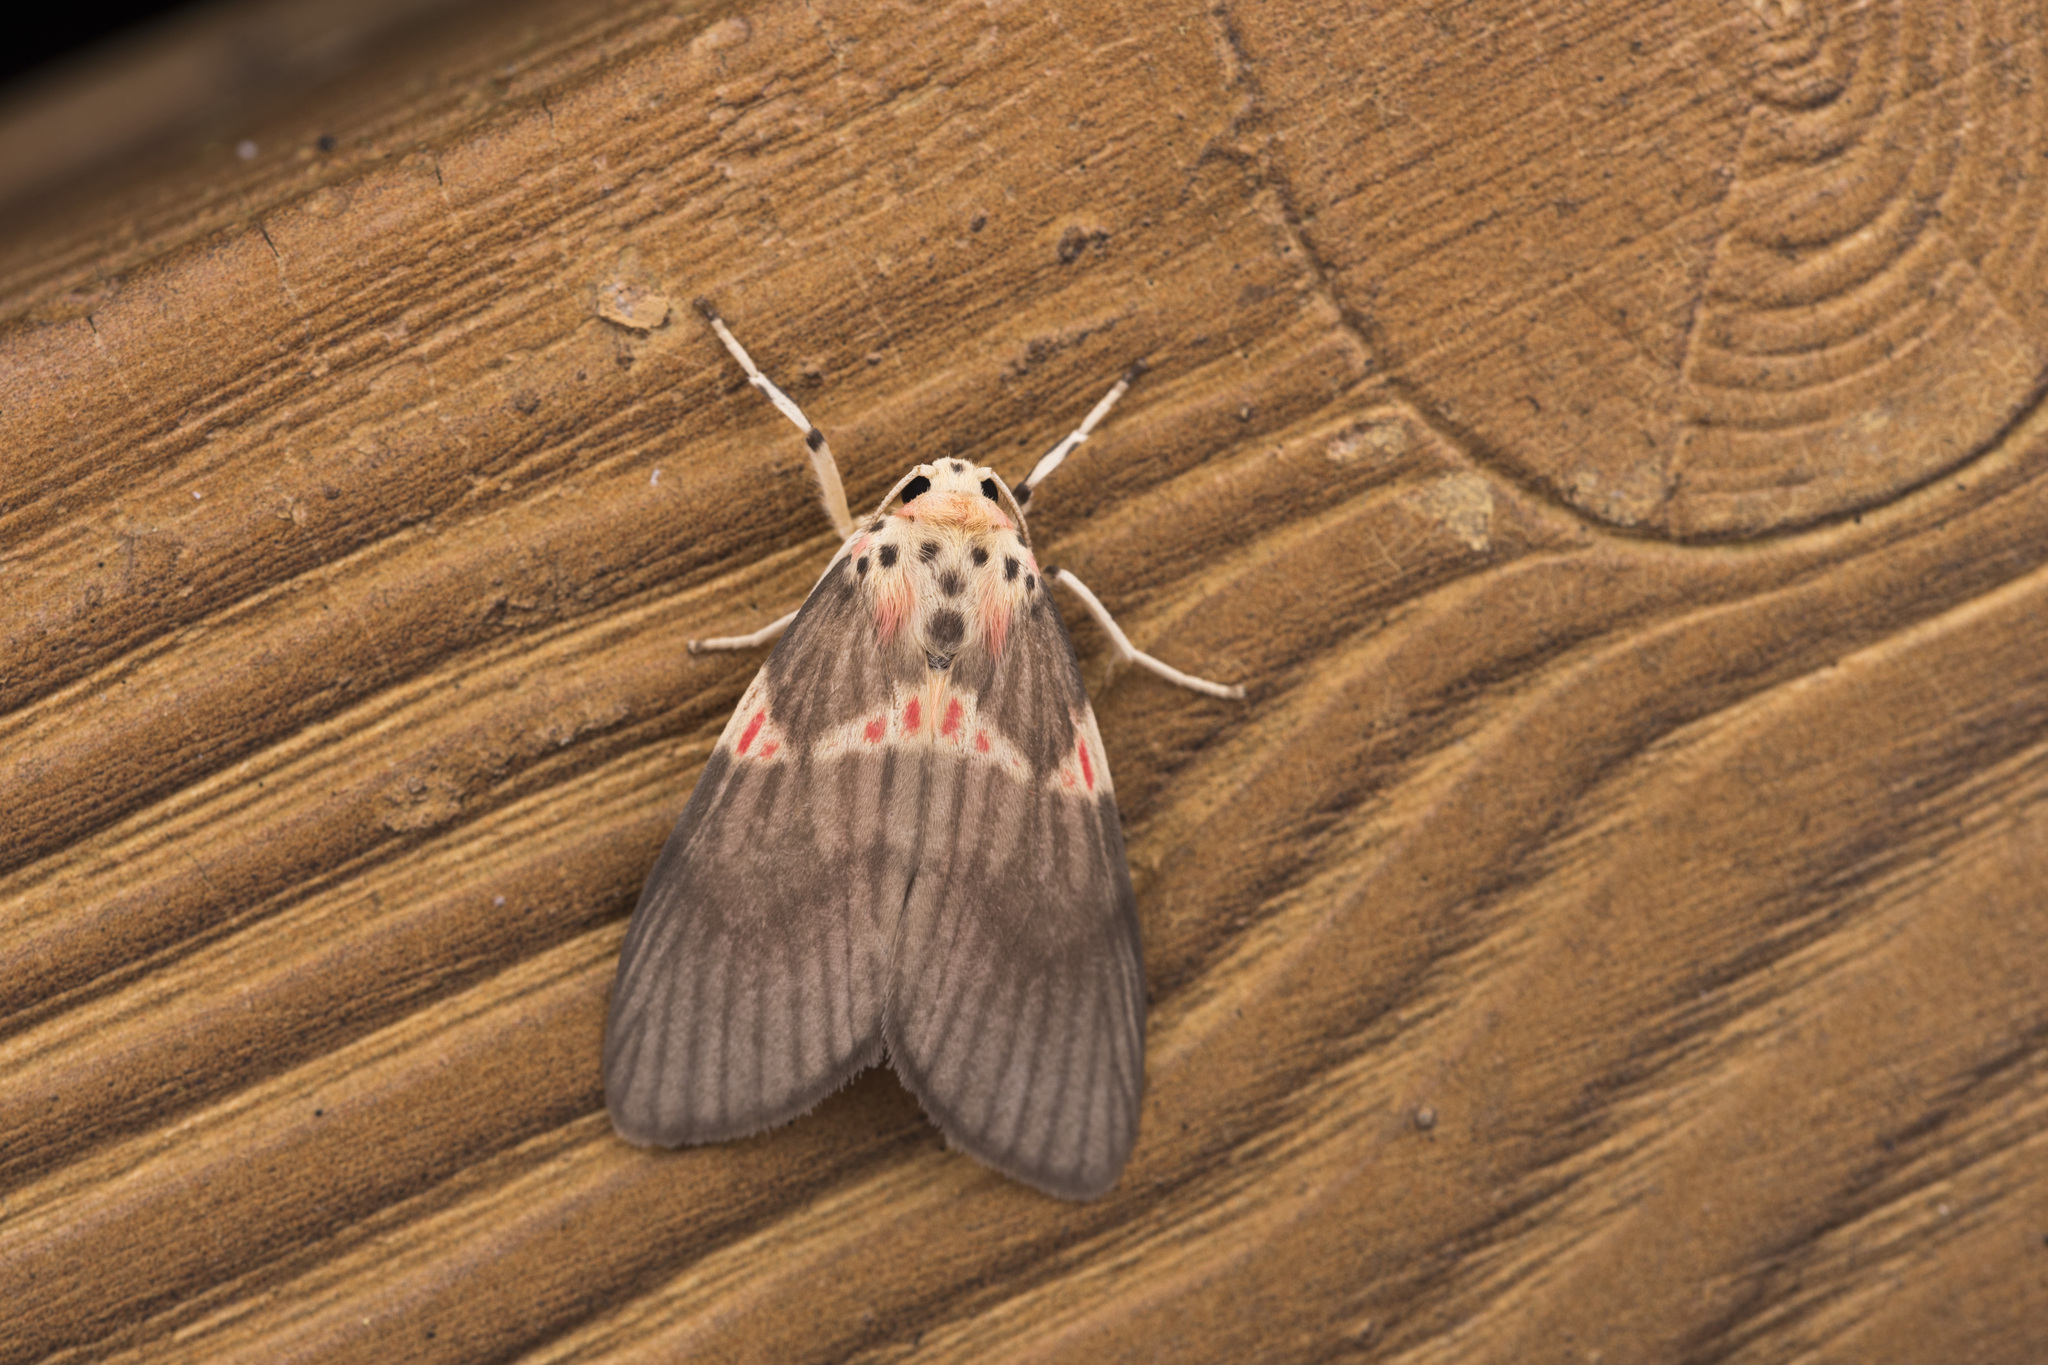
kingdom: Animalia
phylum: Arthropoda
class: Insecta
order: Lepidoptera
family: Erebidae
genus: Barsine
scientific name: Barsine fuscozonata
